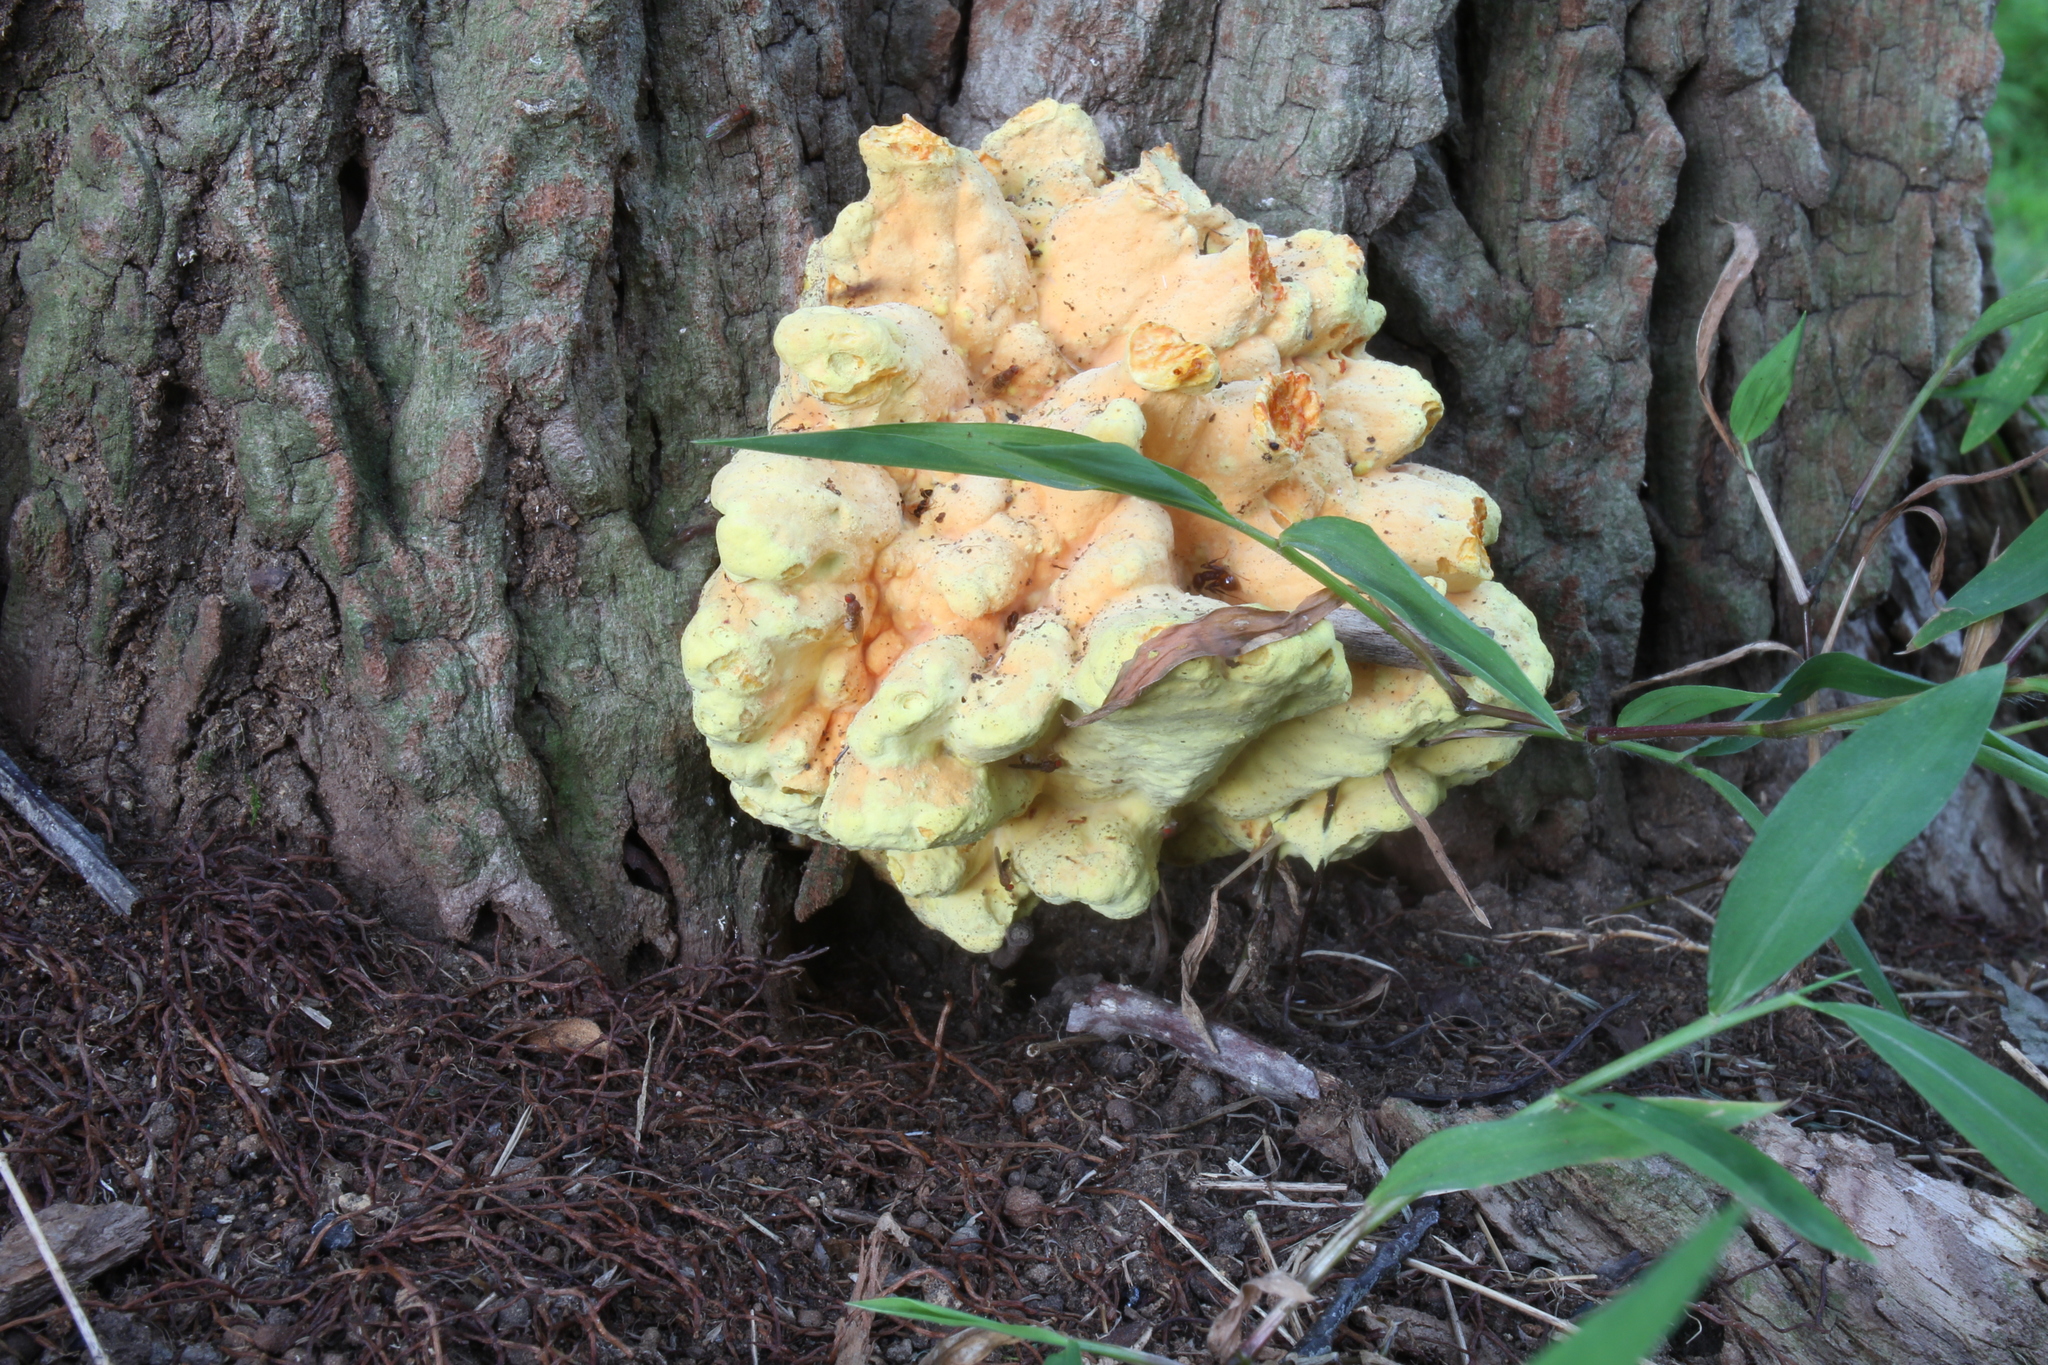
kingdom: Fungi
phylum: Basidiomycota
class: Agaricomycetes
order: Polyporales
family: Laetiporaceae
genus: Laetiporus
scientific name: Laetiporus sulphureus
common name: Chicken of the woods
